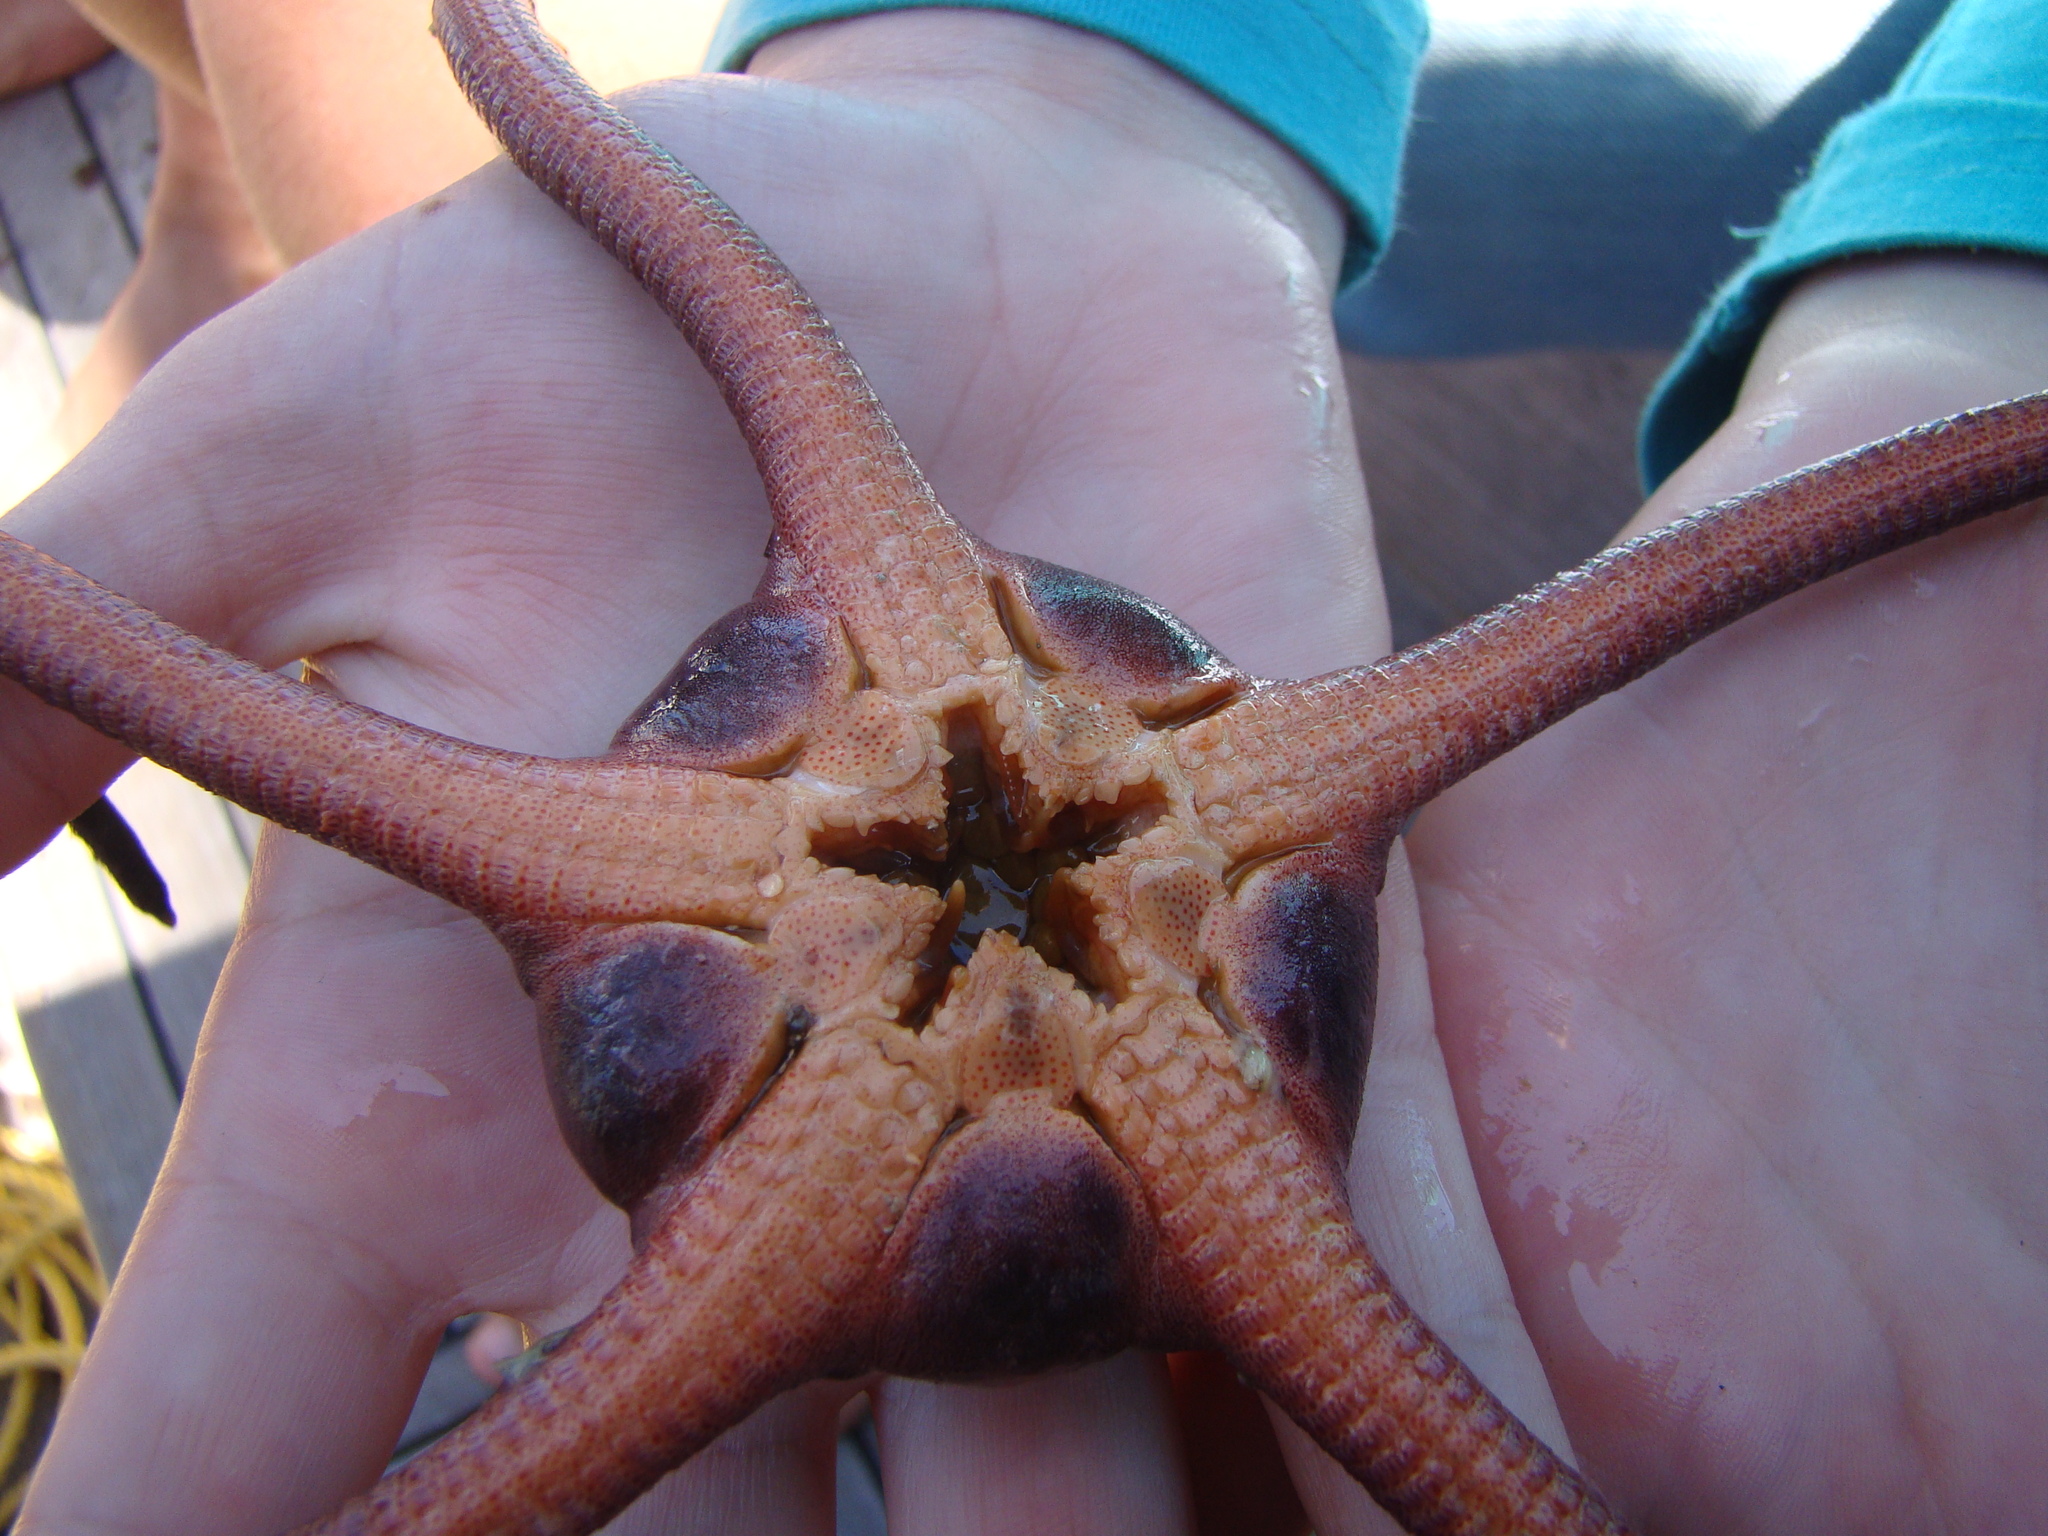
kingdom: Animalia
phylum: Echinodermata
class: Ophiuroidea
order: Ophiacanthida
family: Ophiodermatidae
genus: Ophiopsammus
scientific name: Ophiopsammus maculata
